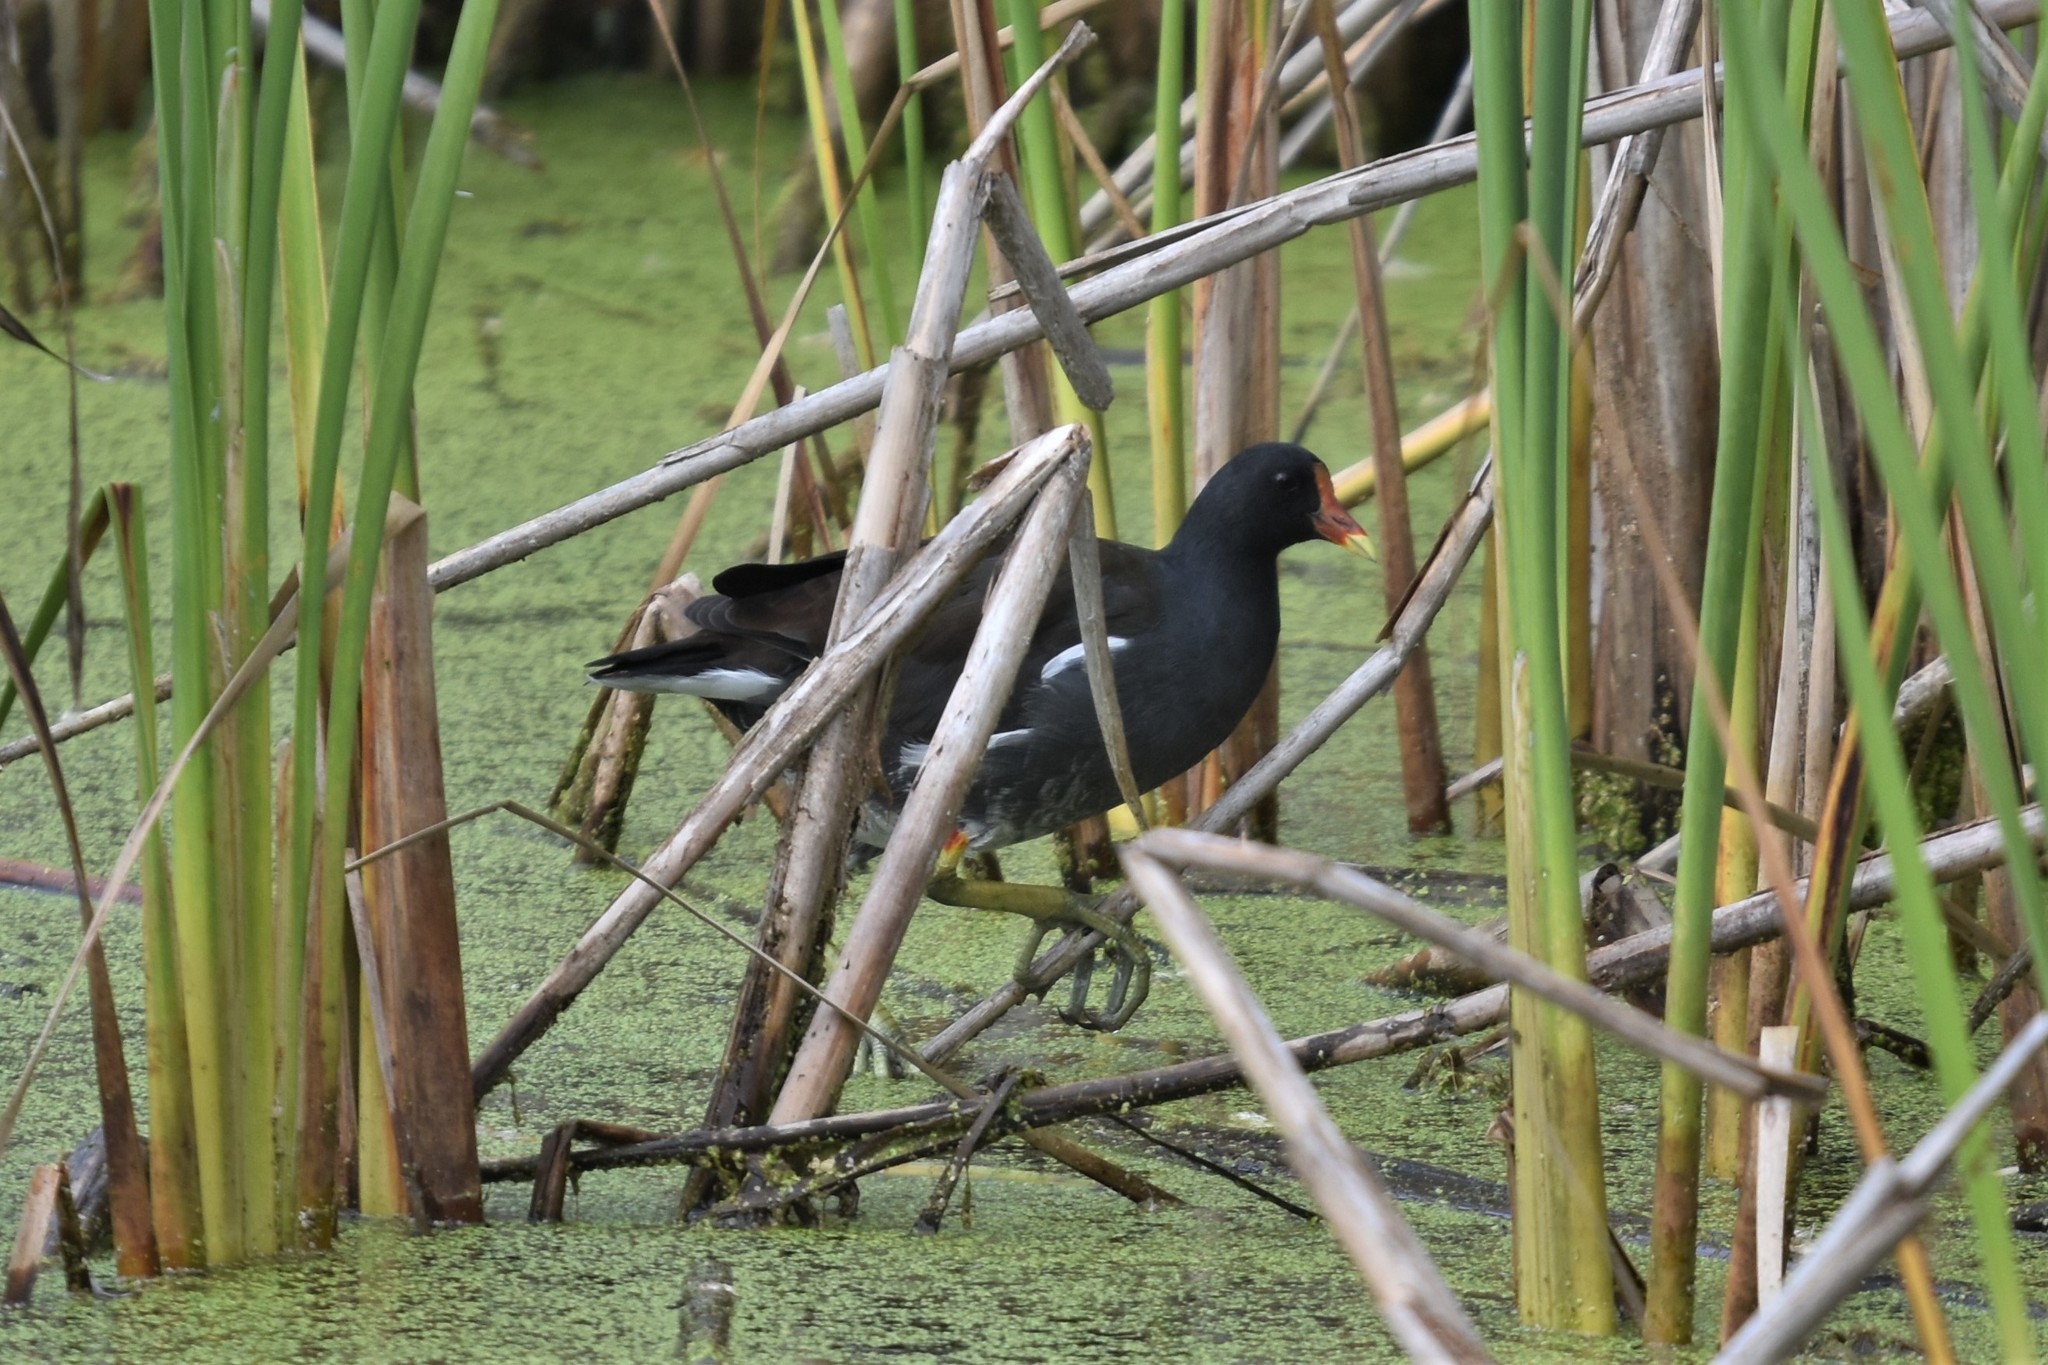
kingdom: Animalia
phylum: Chordata
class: Aves
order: Gruiformes
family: Rallidae
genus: Gallinula
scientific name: Gallinula chloropus
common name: Common moorhen
